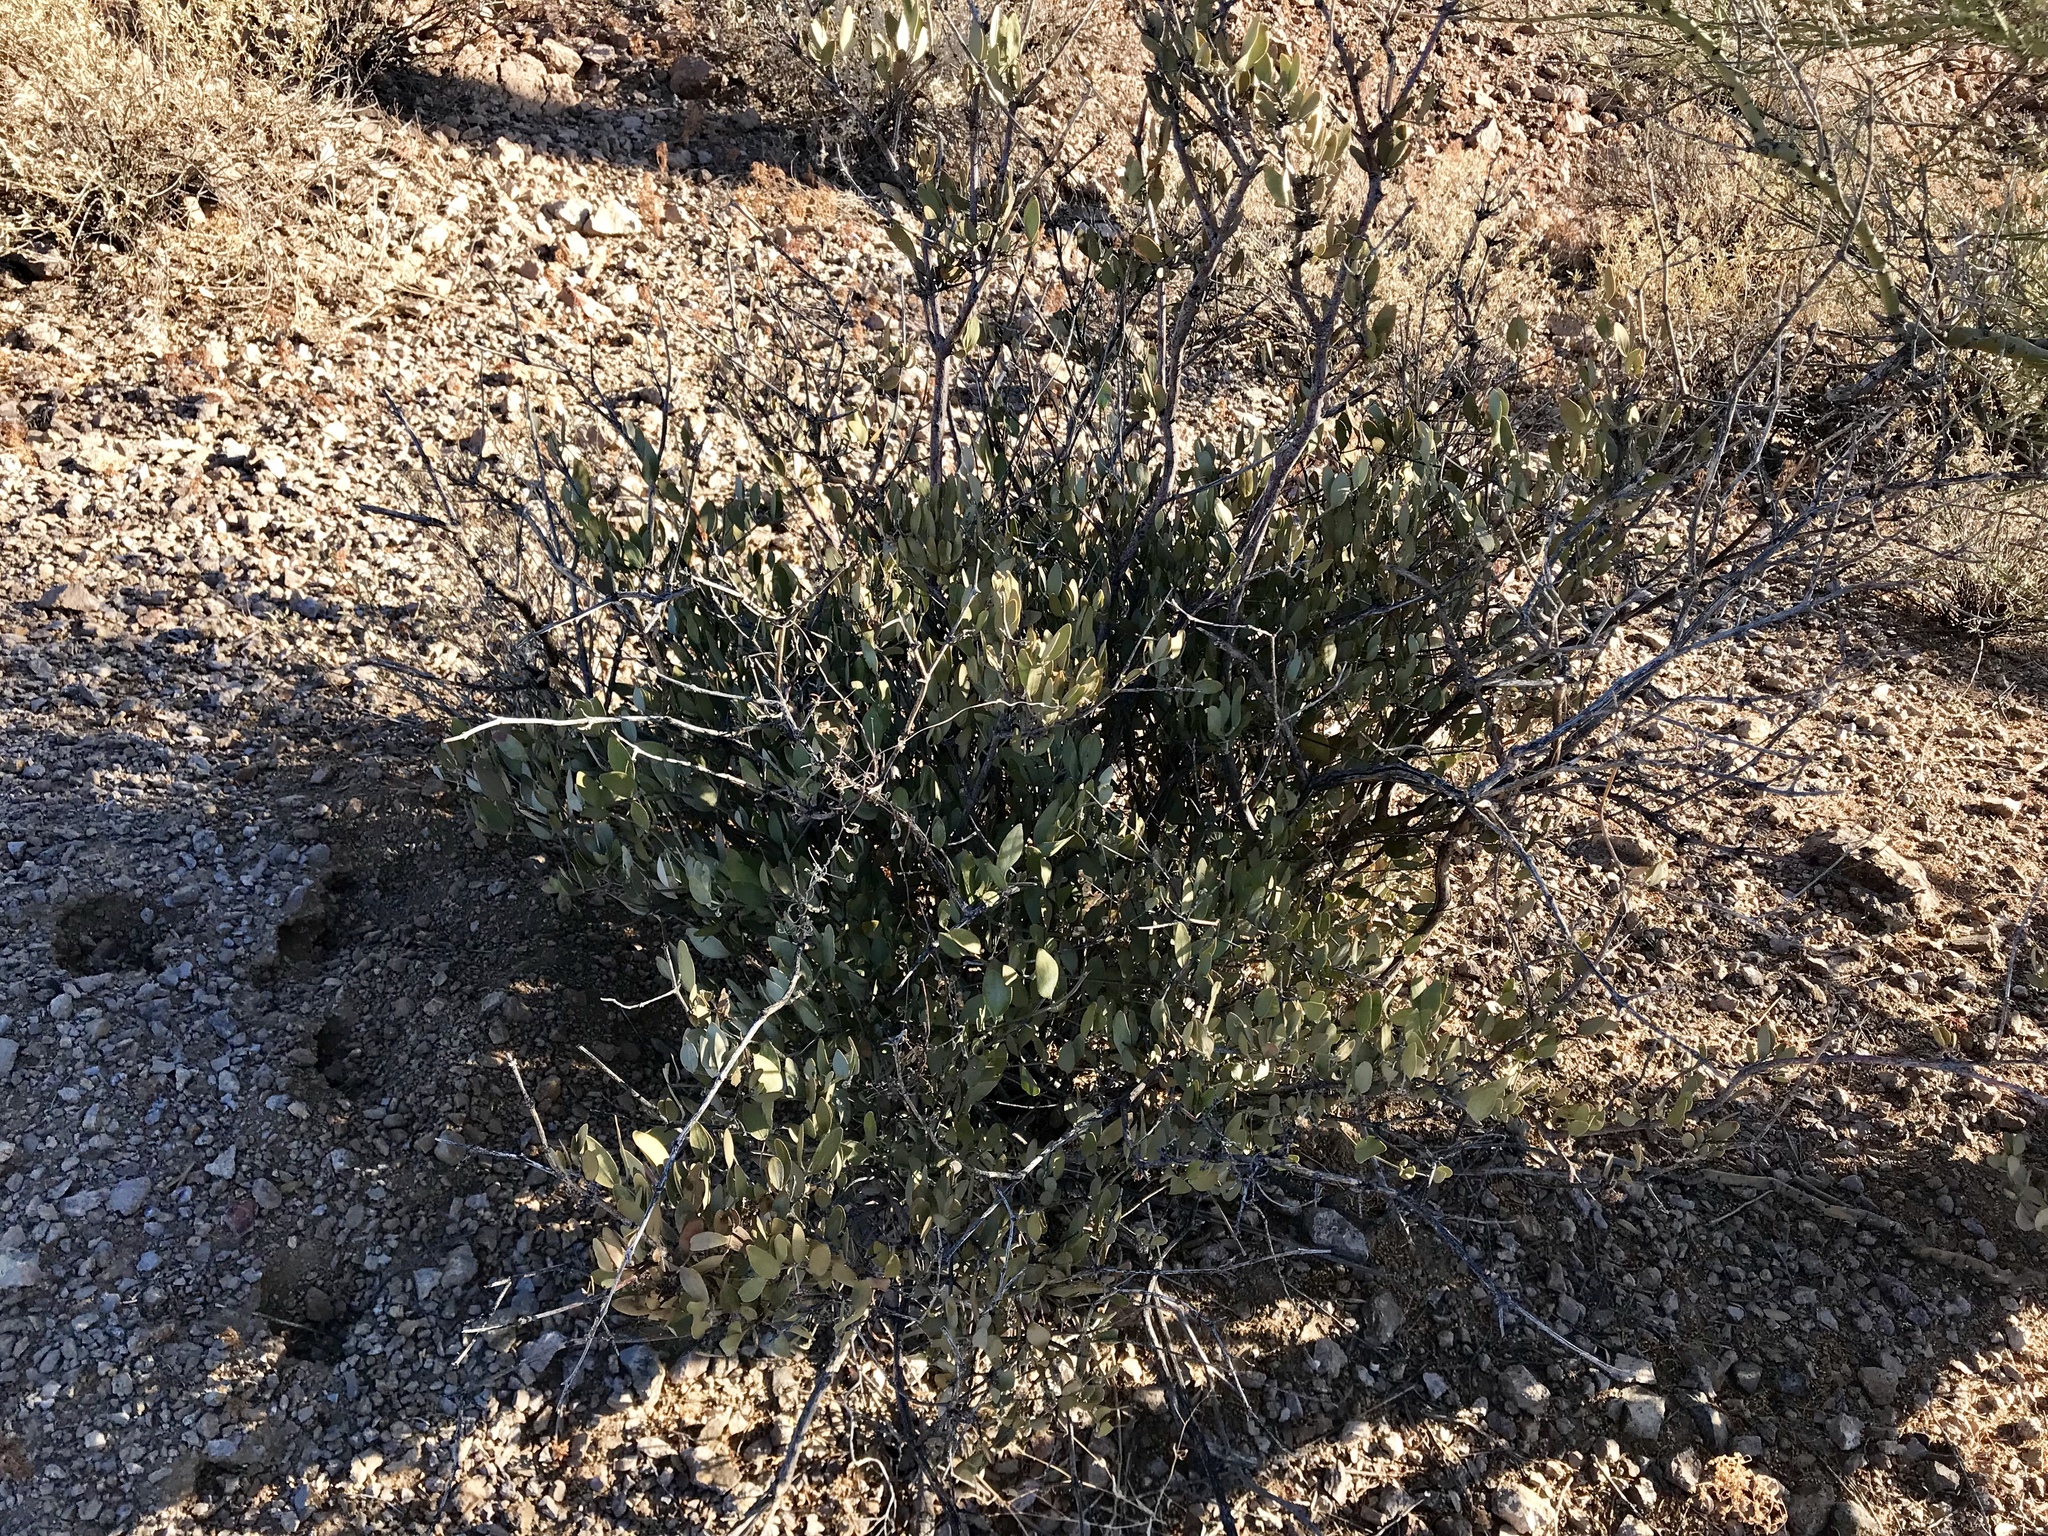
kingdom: Plantae
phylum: Tracheophyta
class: Magnoliopsida
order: Caryophyllales
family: Simmondsiaceae
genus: Simmondsia
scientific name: Simmondsia chinensis
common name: Jojoba
